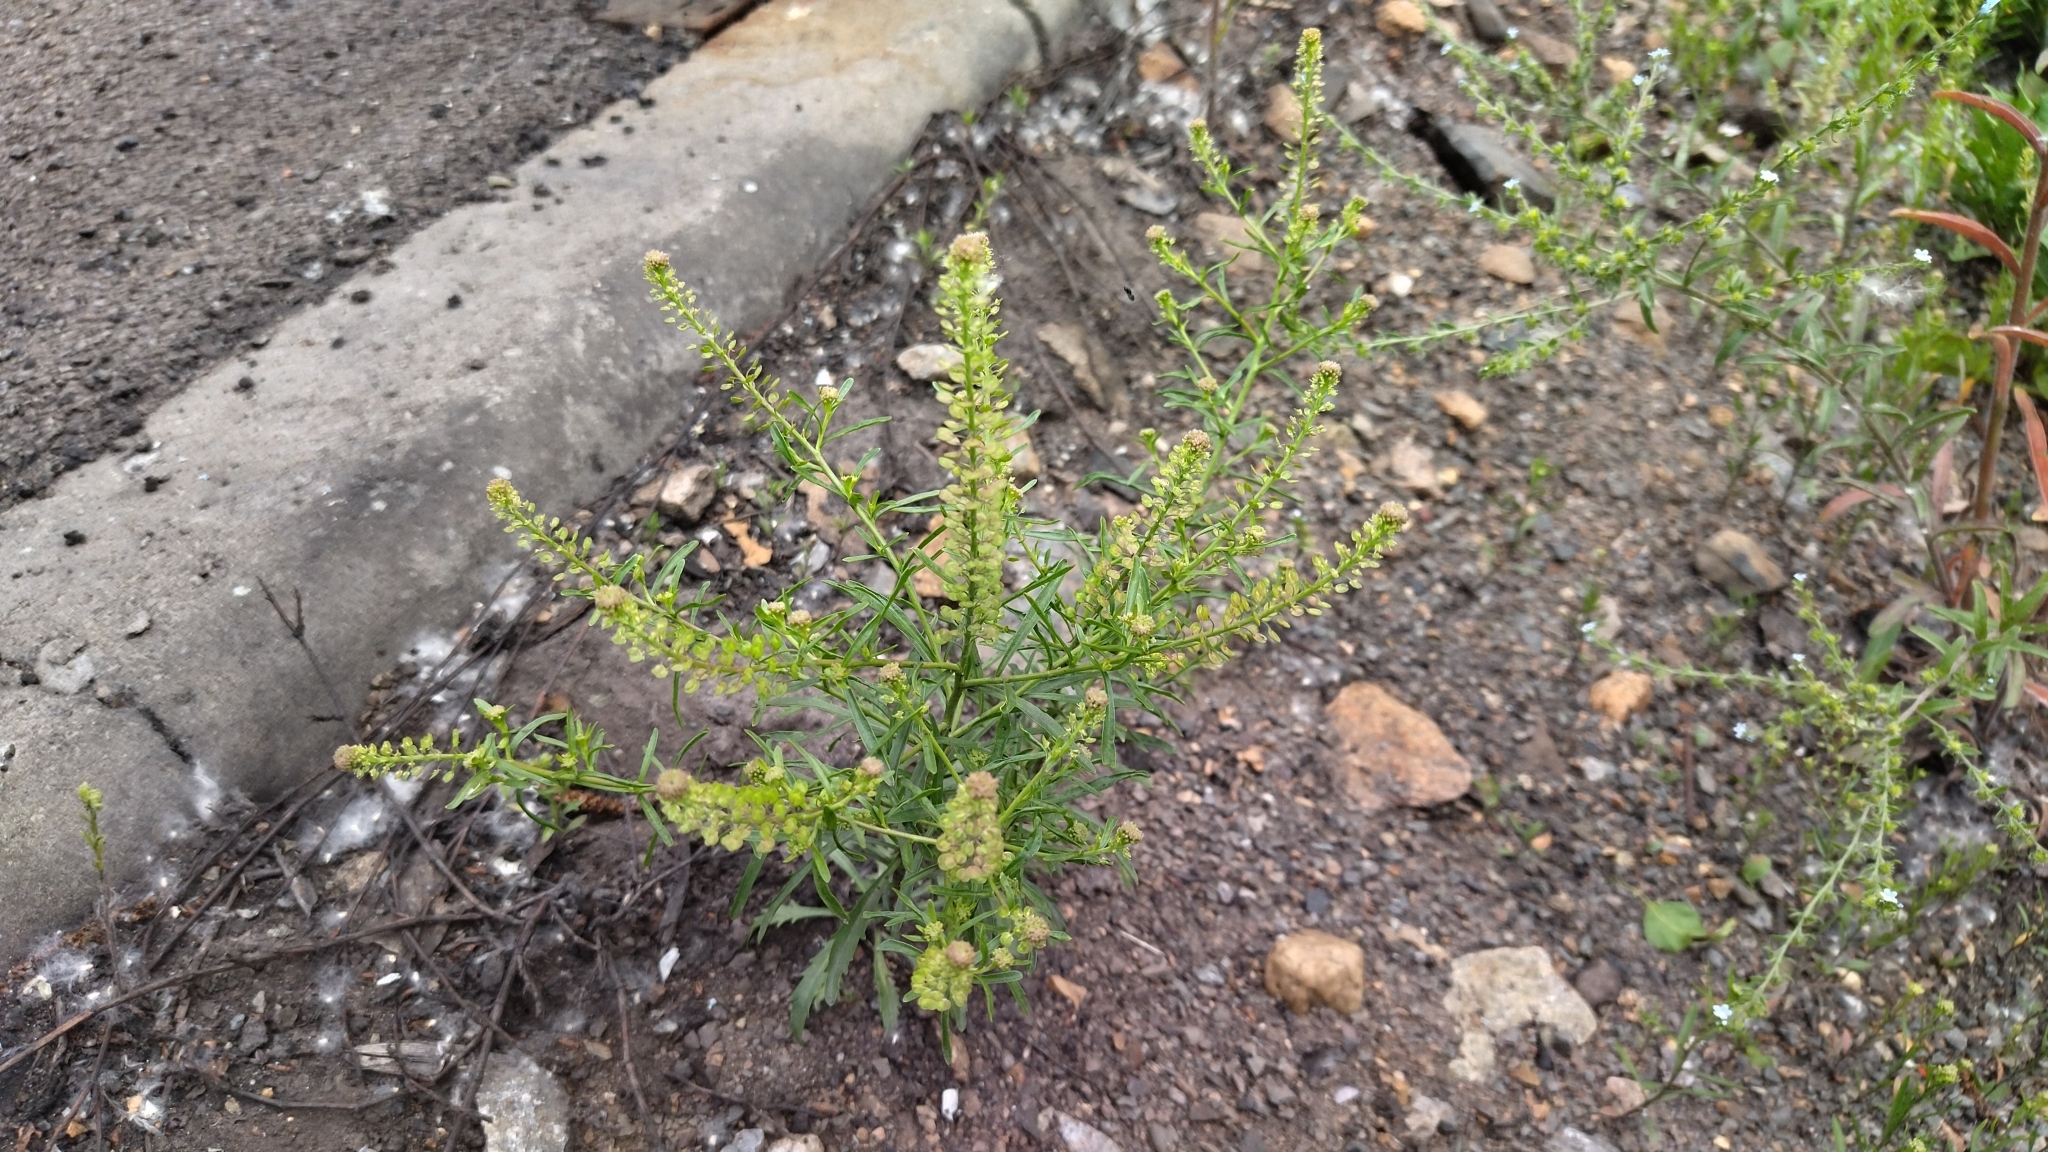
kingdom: Plantae
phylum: Tracheophyta
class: Magnoliopsida
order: Brassicales
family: Brassicaceae
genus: Lepidium
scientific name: Lepidium densiflorum
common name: Miner's pepperwort
